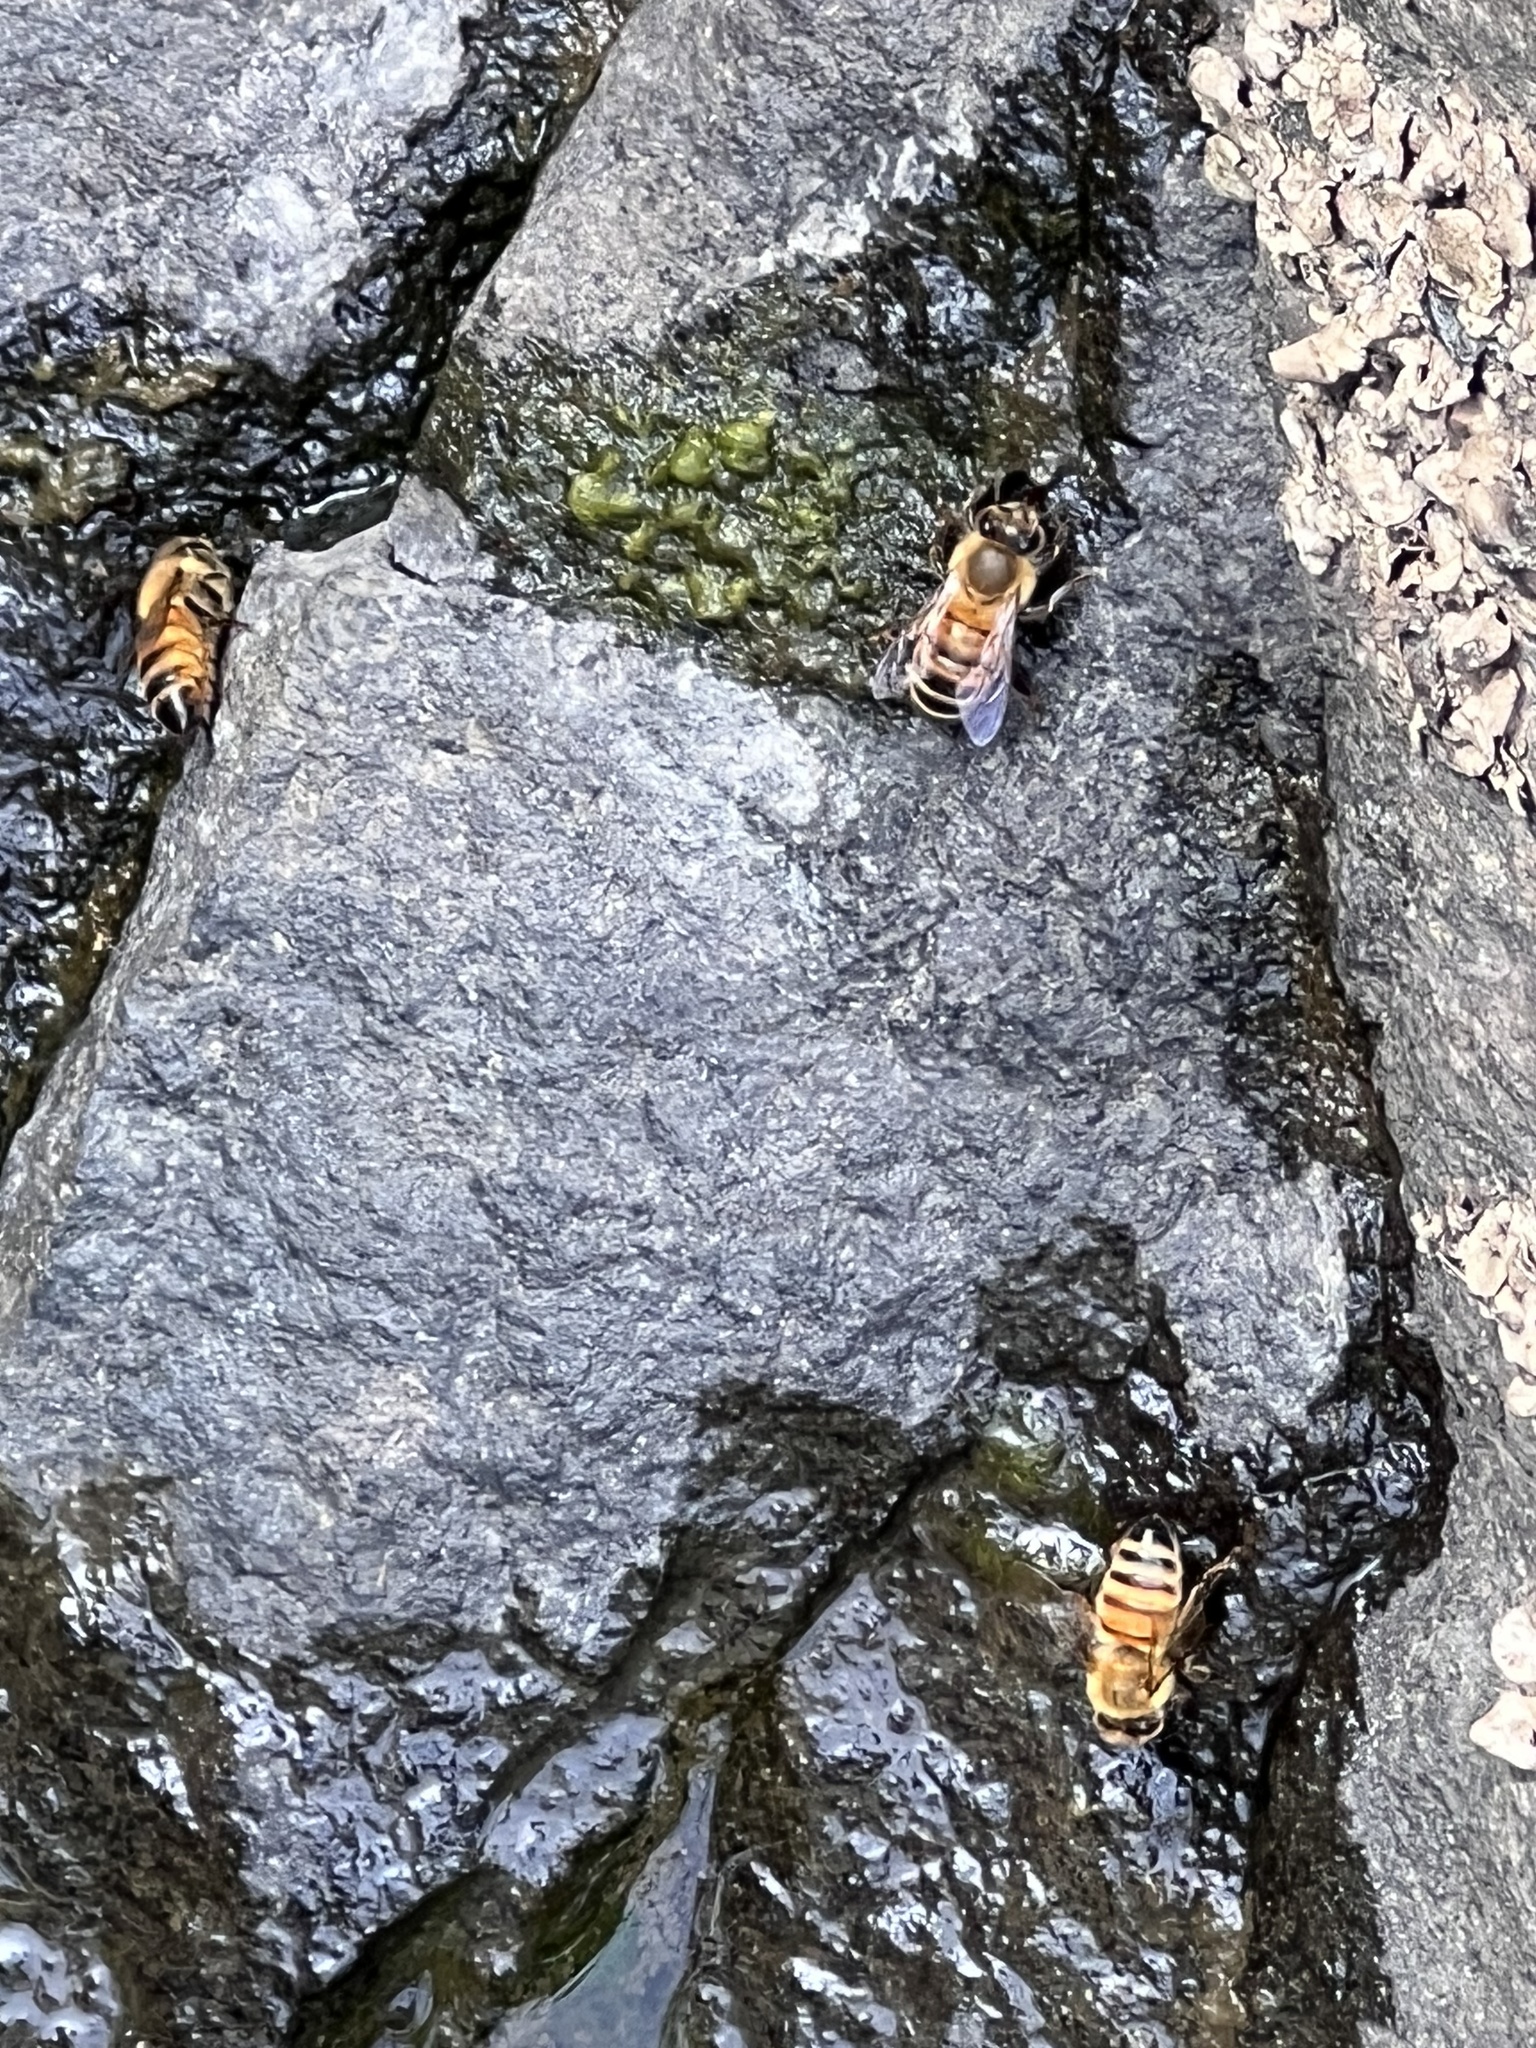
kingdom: Animalia
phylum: Arthropoda
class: Insecta
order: Hymenoptera
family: Apidae
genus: Apis
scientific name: Apis mellifera
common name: Honey bee
